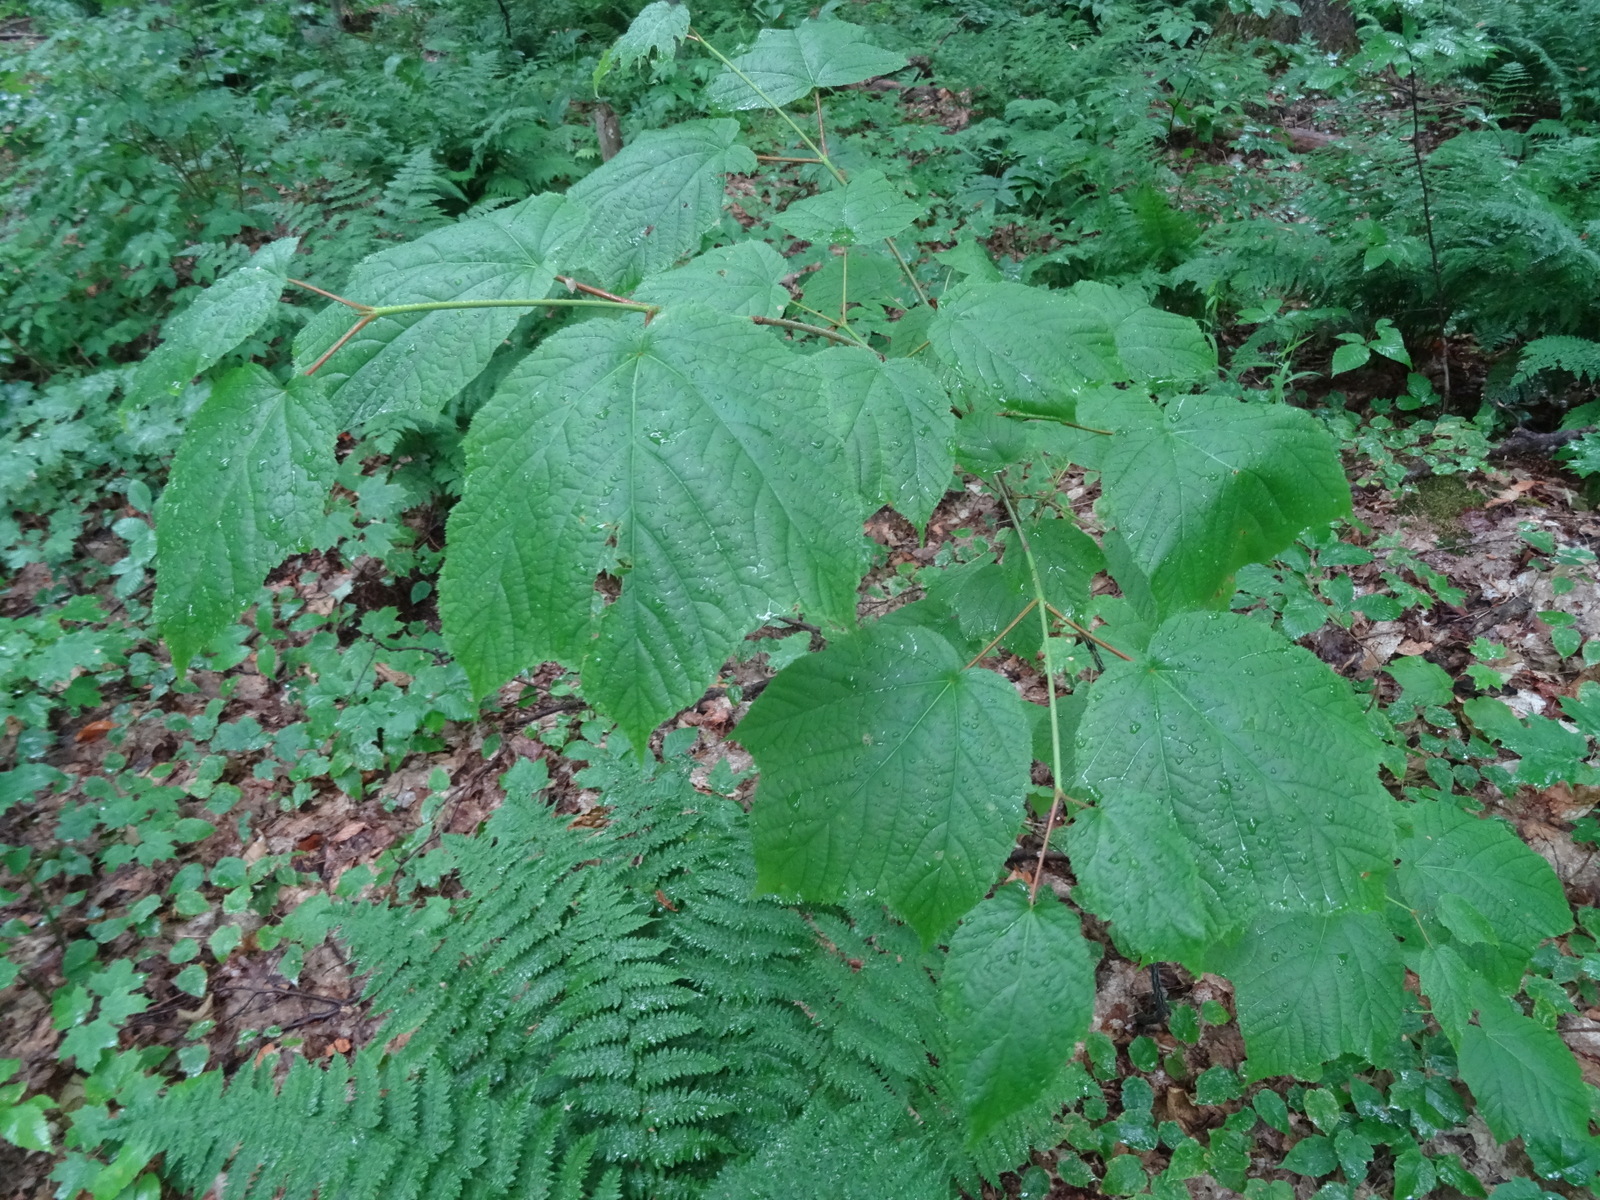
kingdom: Plantae
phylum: Tracheophyta
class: Magnoliopsida
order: Sapindales
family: Sapindaceae
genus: Acer
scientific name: Acer pensylvanicum
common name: Moosewood
